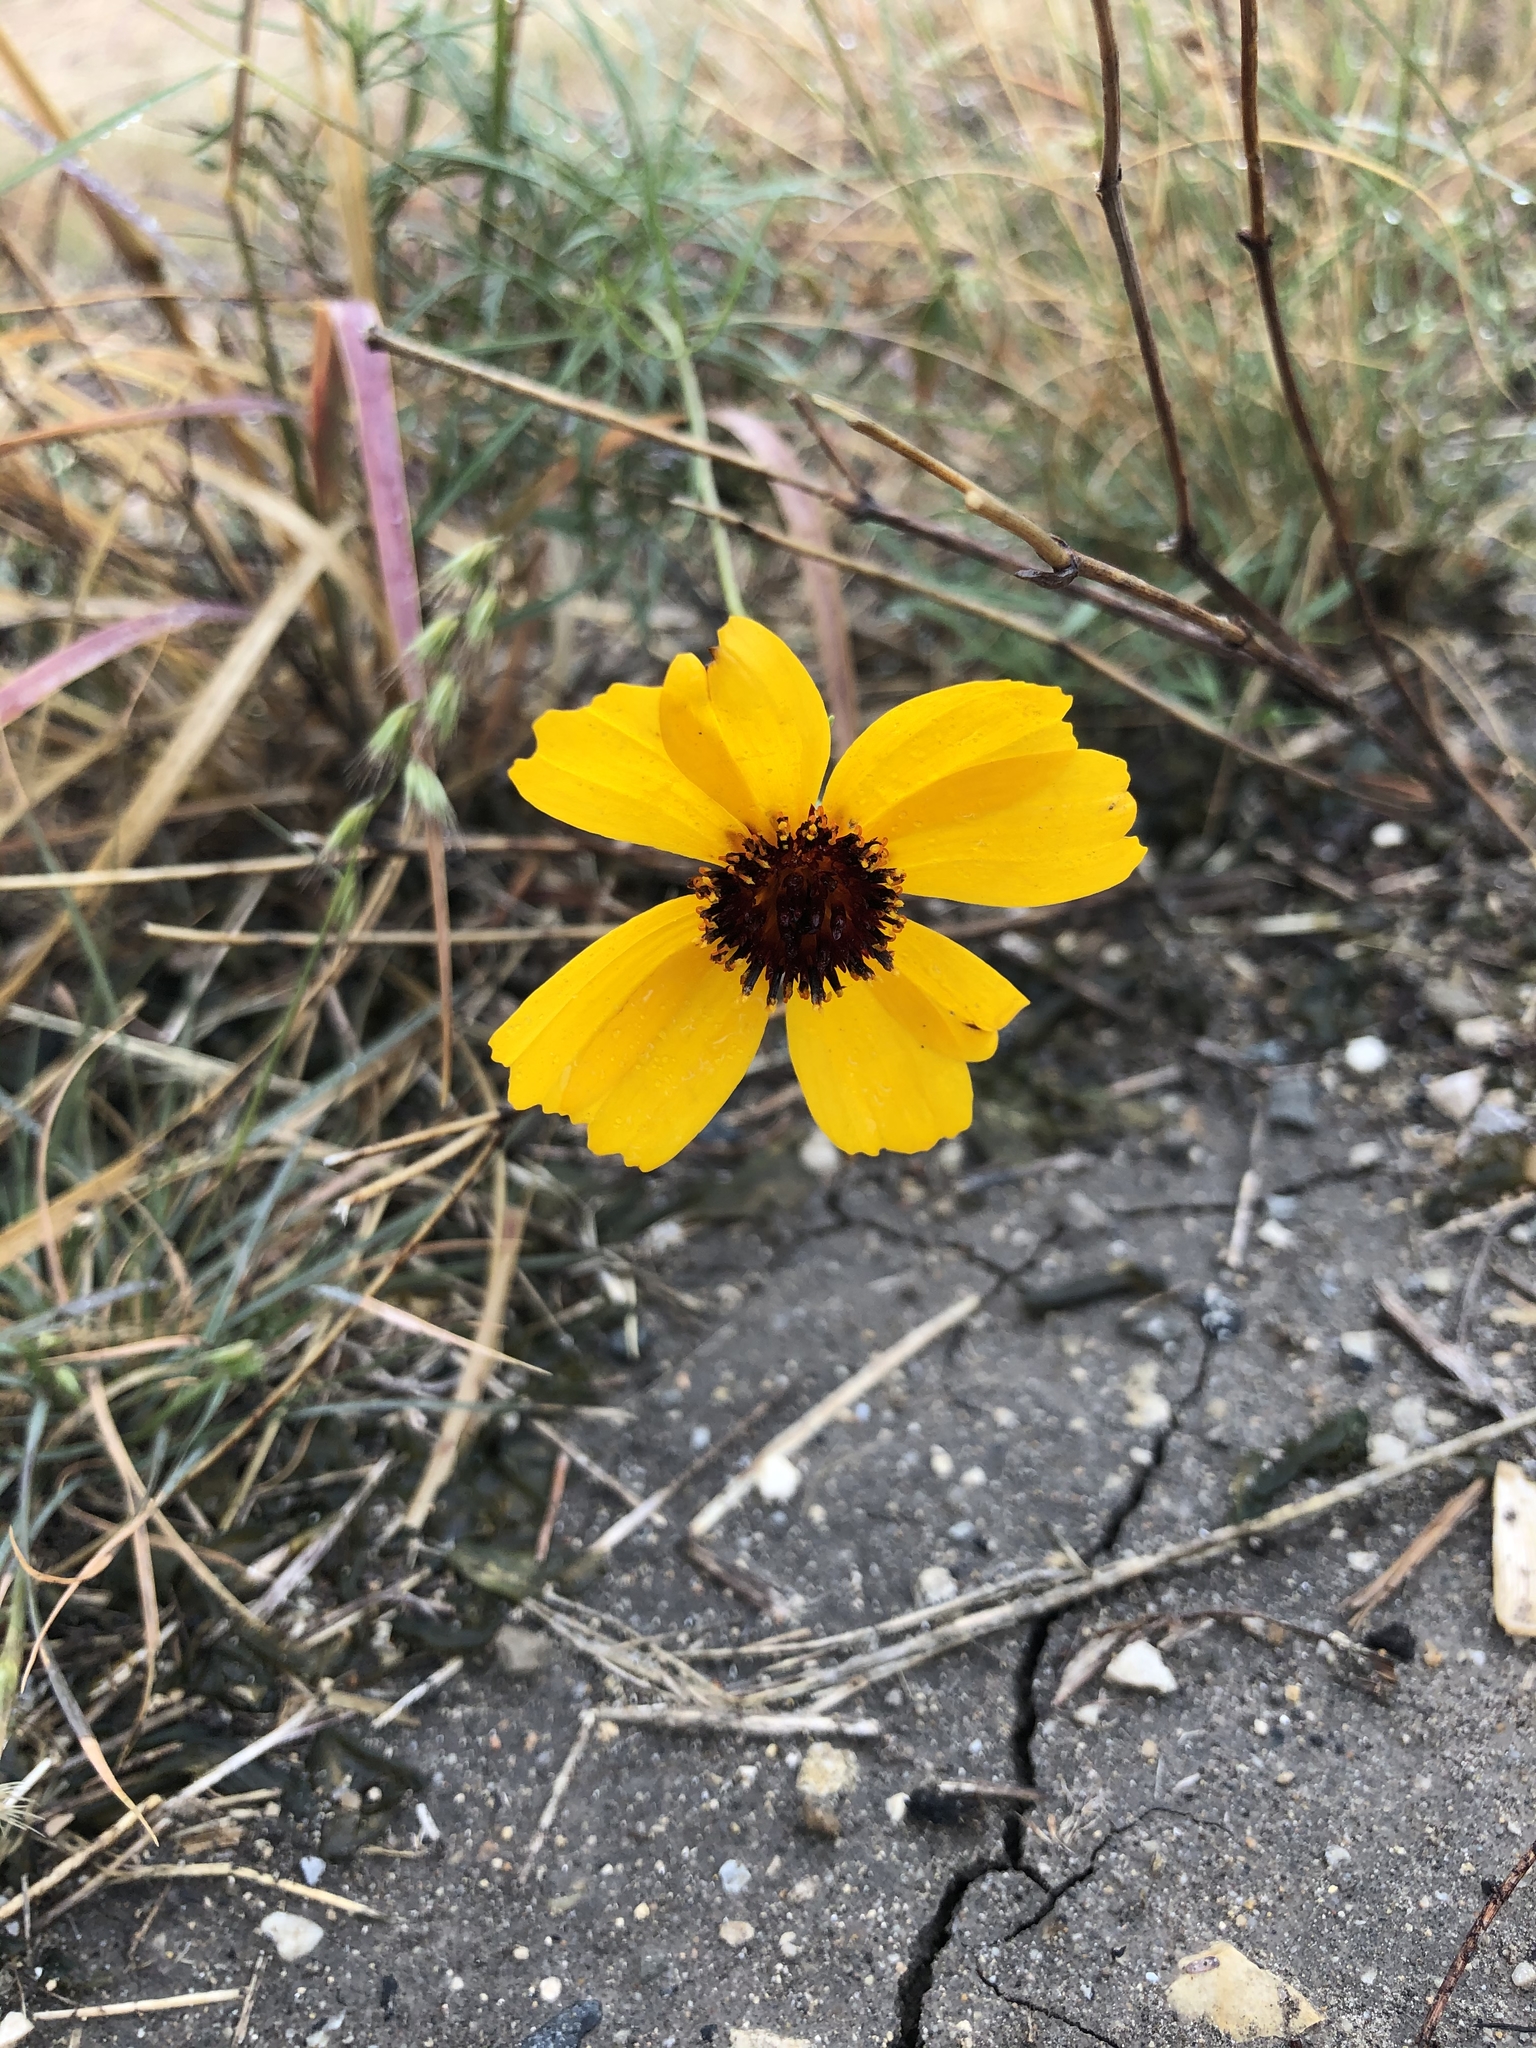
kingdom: Plantae
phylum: Tracheophyta
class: Magnoliopsida
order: Asterales
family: Asteraceae
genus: Thelesperma
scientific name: Thelesperma filifolium
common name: Stiff greenthread
